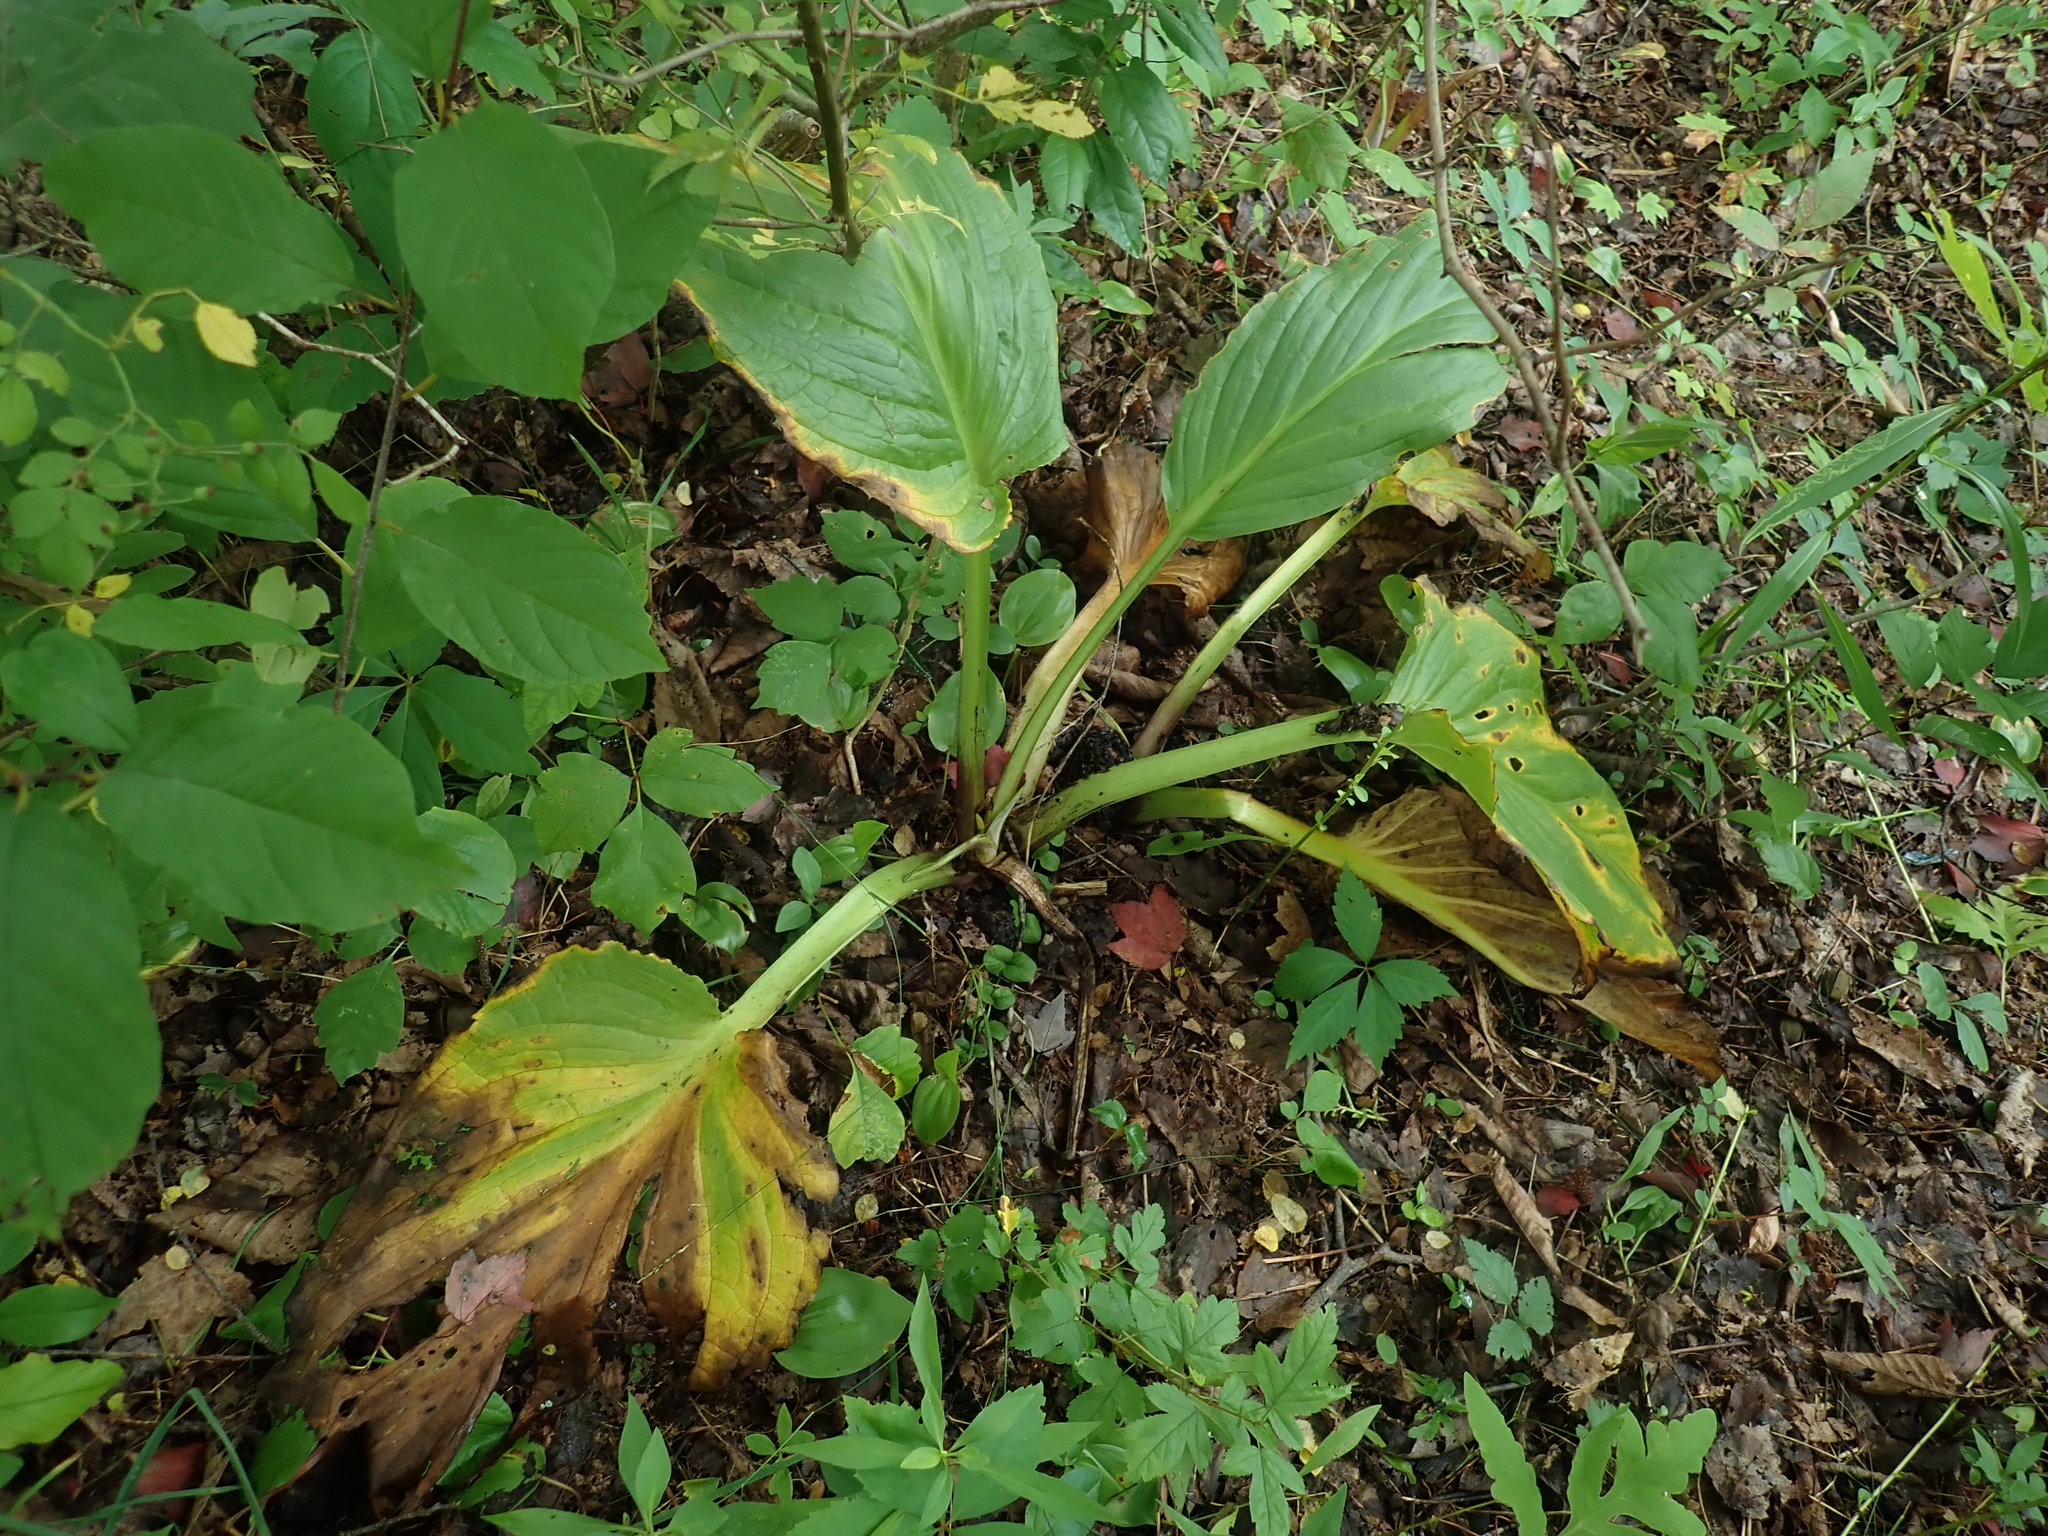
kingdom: Plantae
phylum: Tracheophyta
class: Liliopsida
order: Alismatales
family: Araceae
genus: Symplocarpus
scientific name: Symplocarpus foetidus
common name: Eastern skunk cabbage
